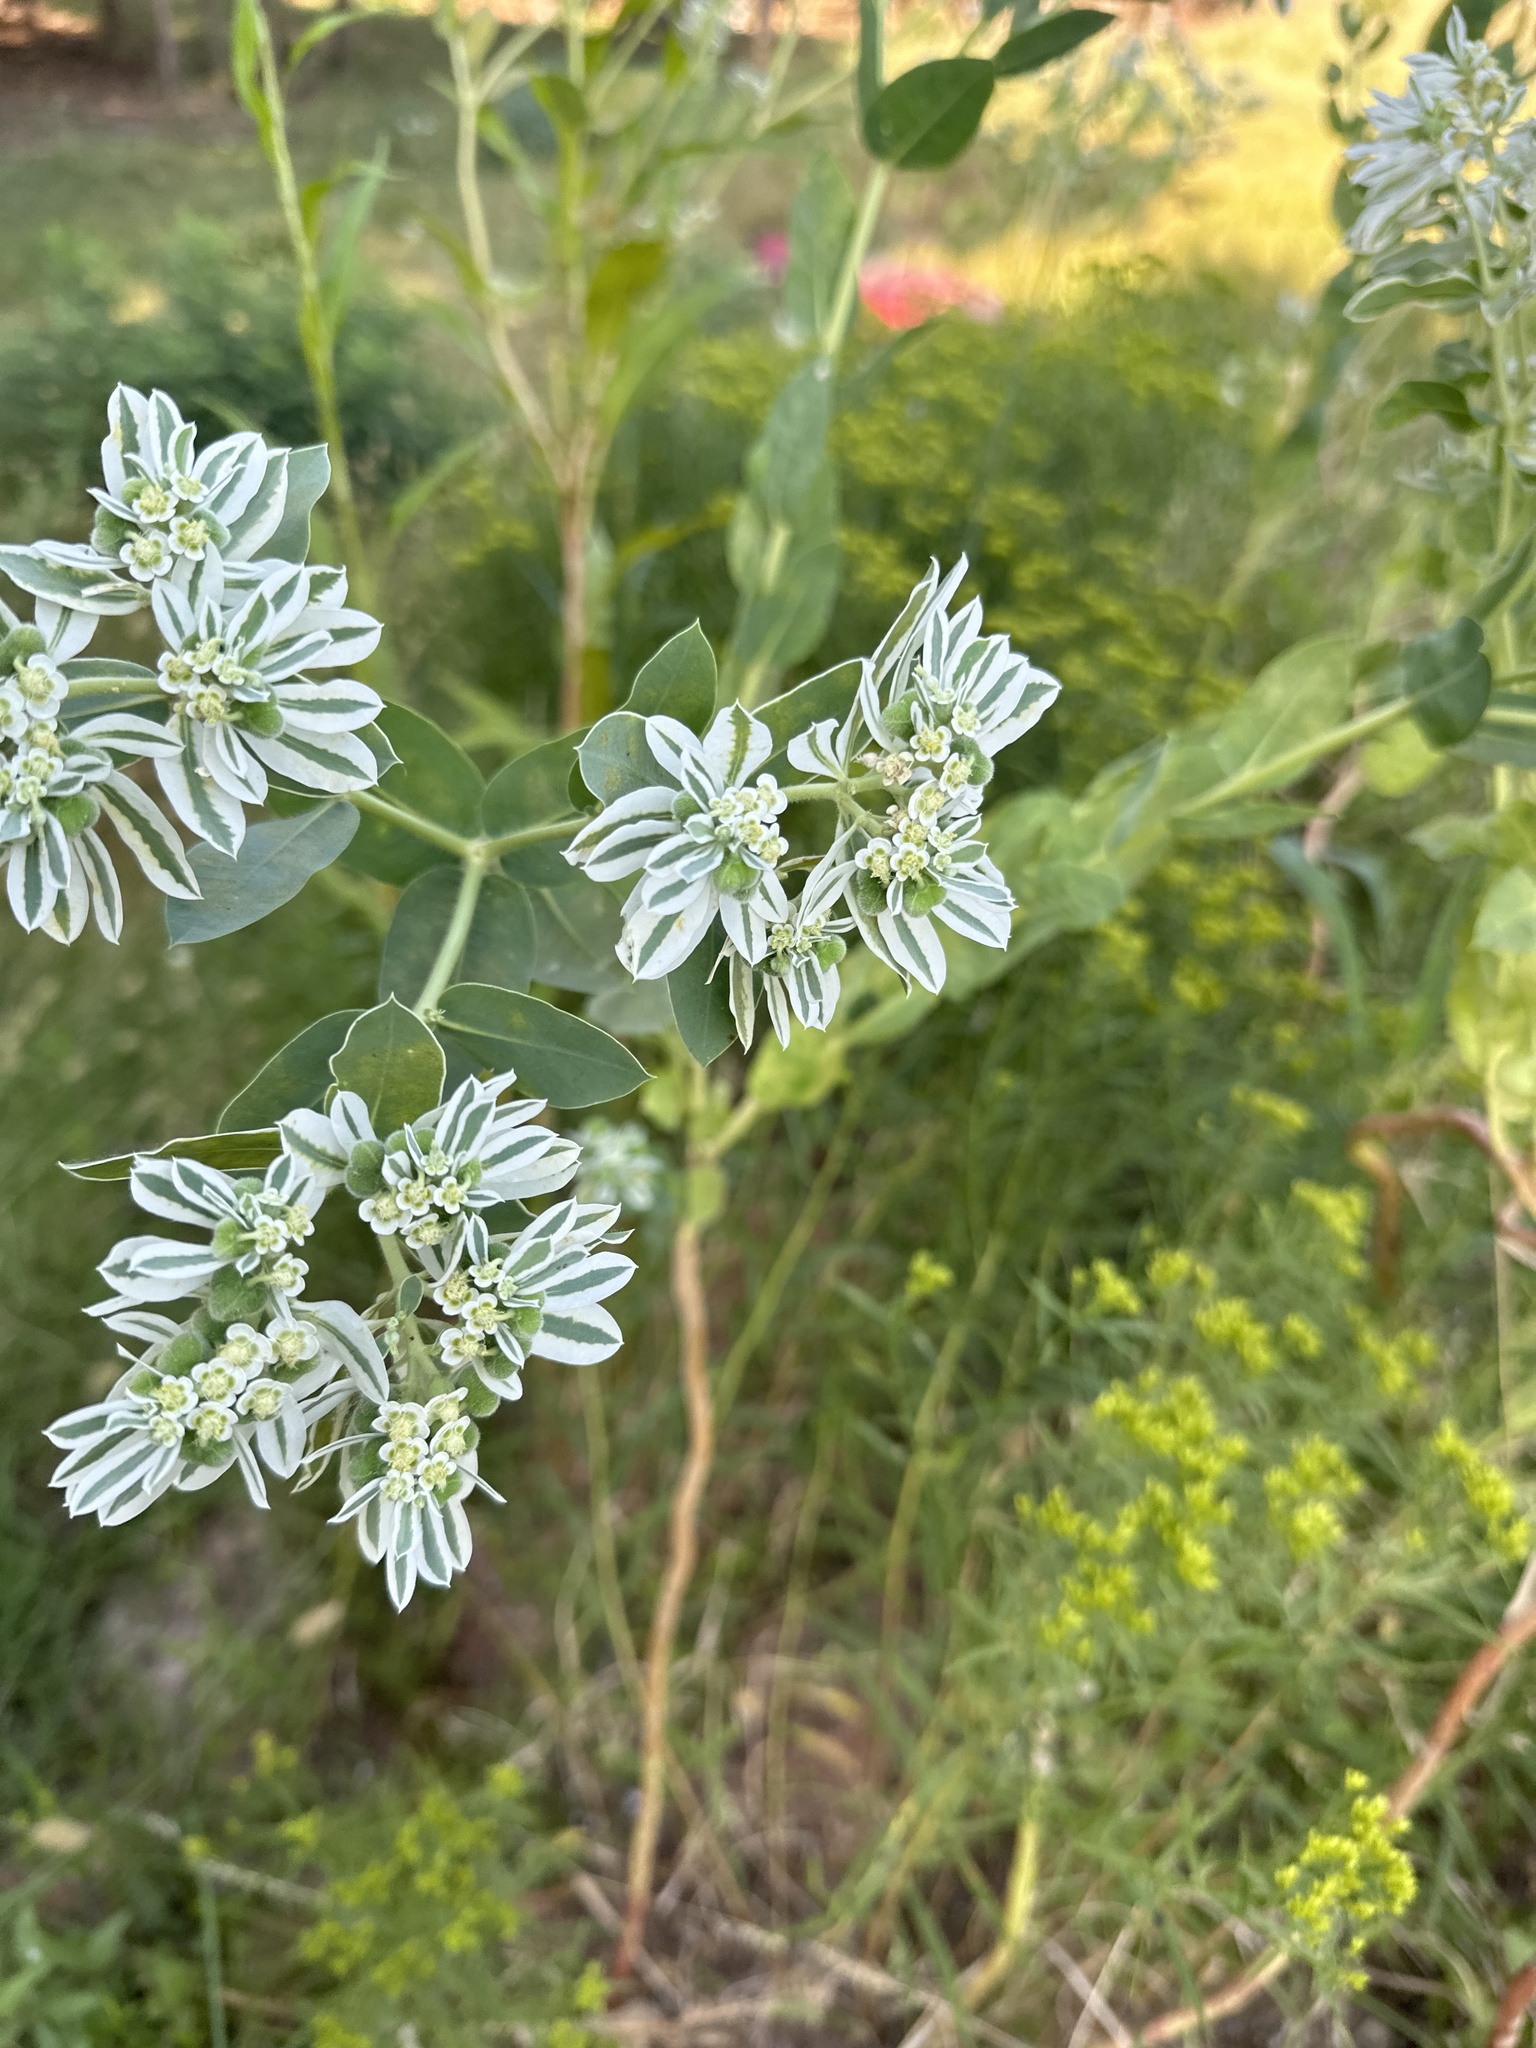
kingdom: Plantae
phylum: Tracheophyta
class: Magnoliopsida
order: Malpighiales
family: Euphorbiaceae
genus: Euphorbia
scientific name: Euphorbia marginata
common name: Ghostweed
